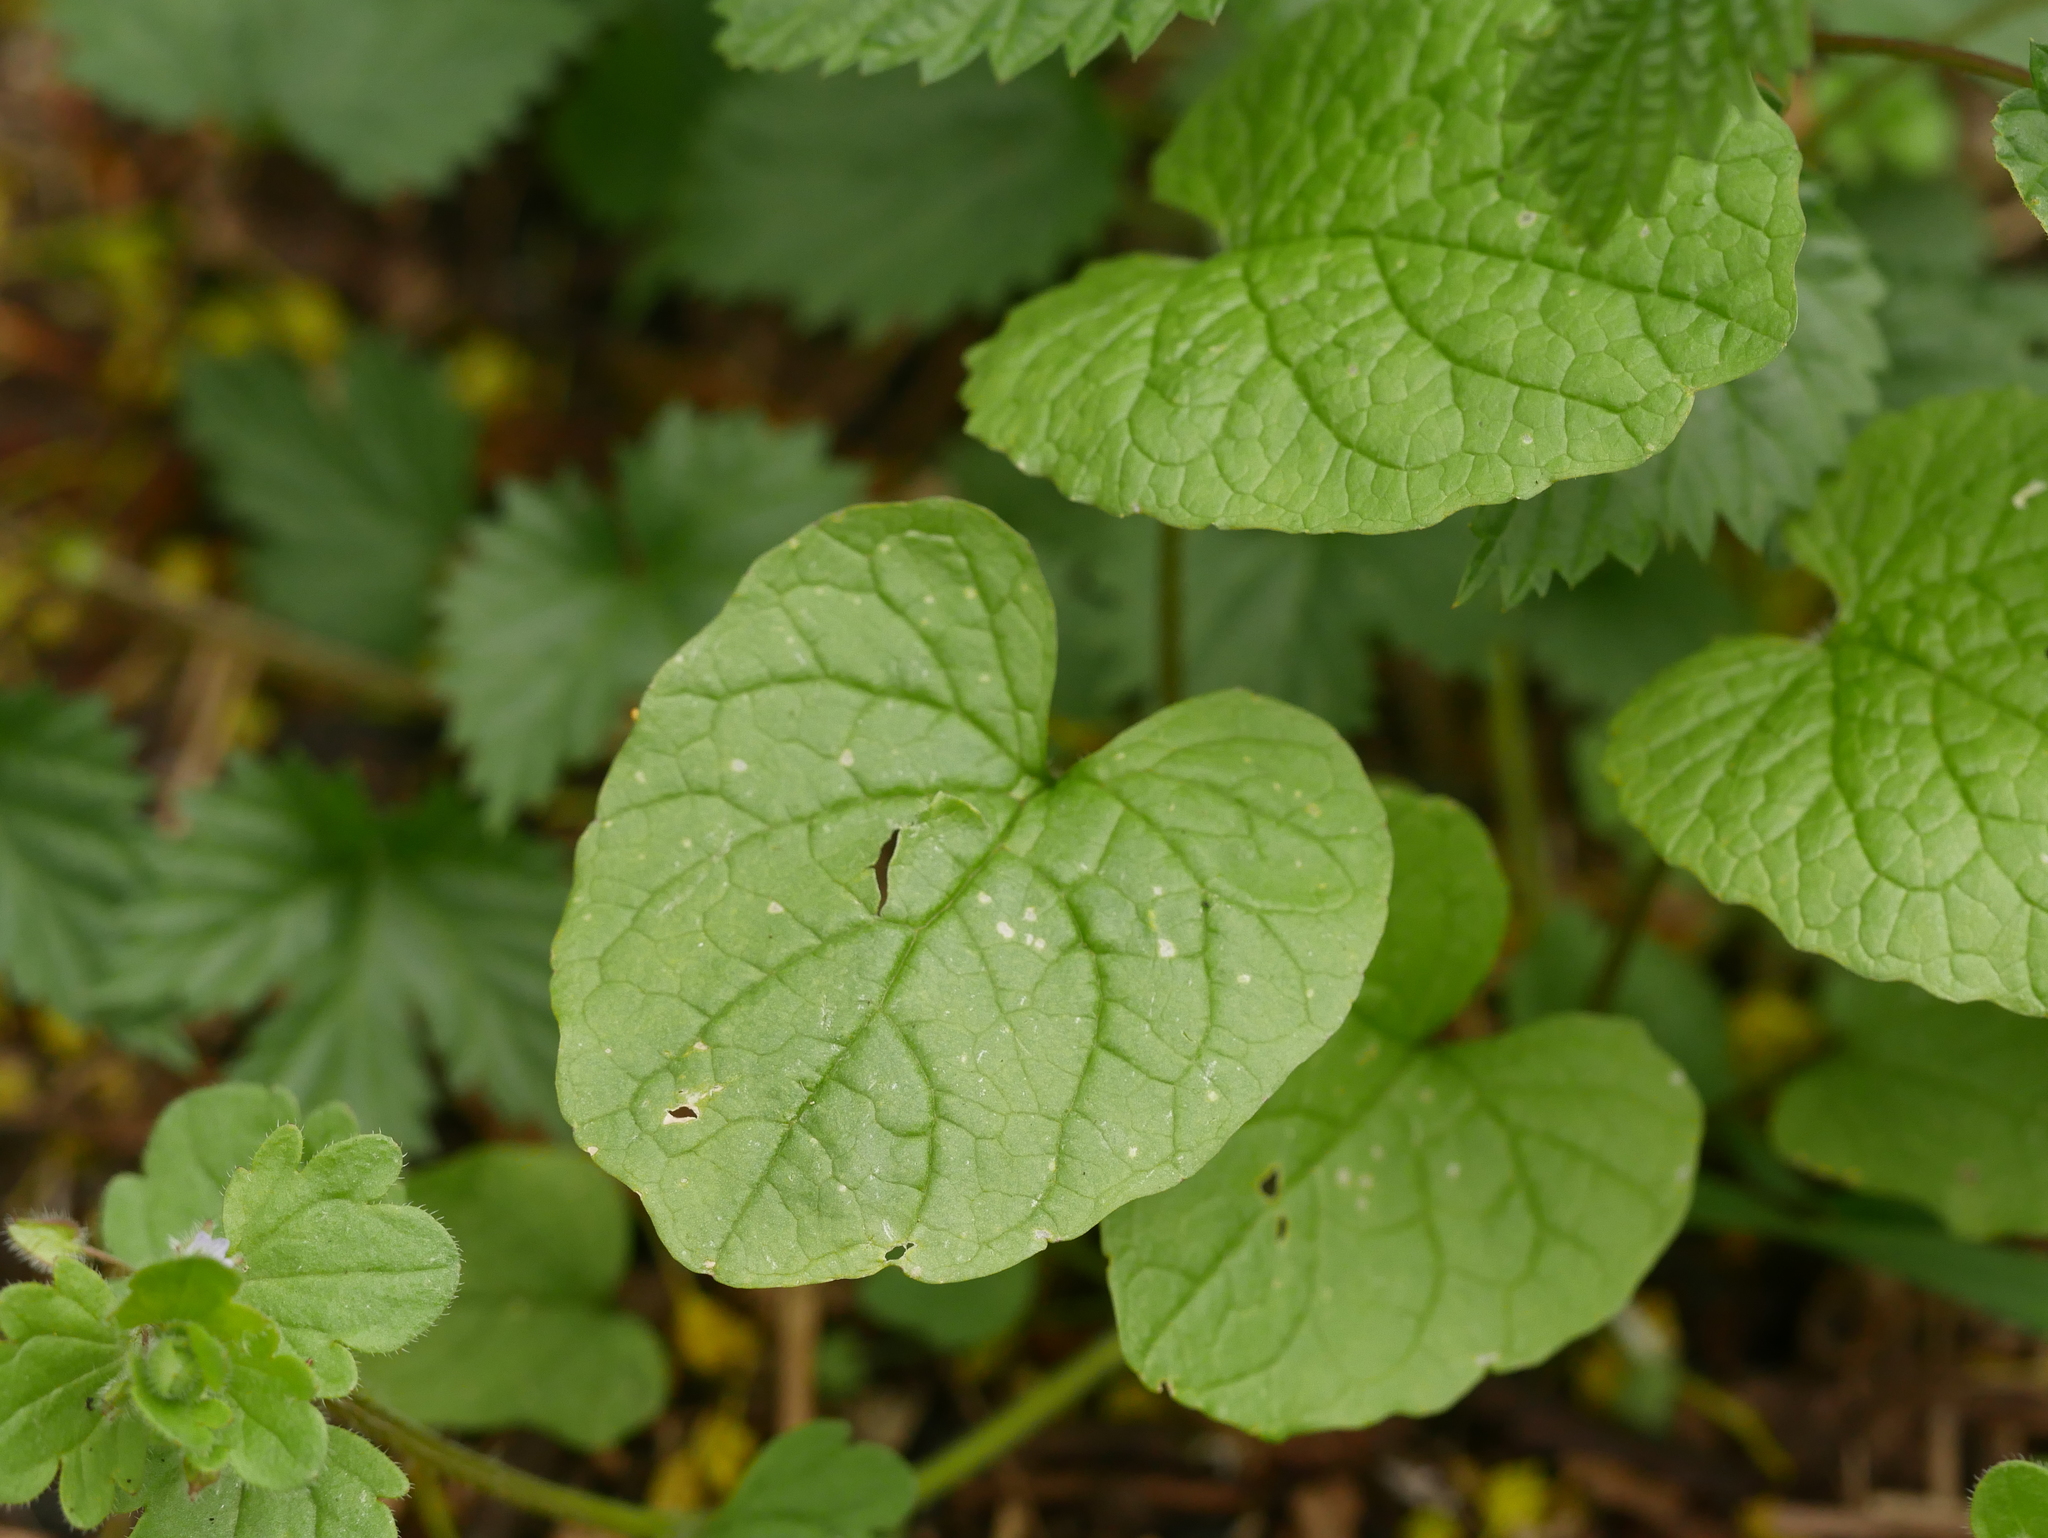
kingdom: Plantae
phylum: Tracheophyta
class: Magnoliopsida
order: Brassicales
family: Brassicaceae
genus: Alliaria
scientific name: Alliaria petiolata
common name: Garlic mustard
